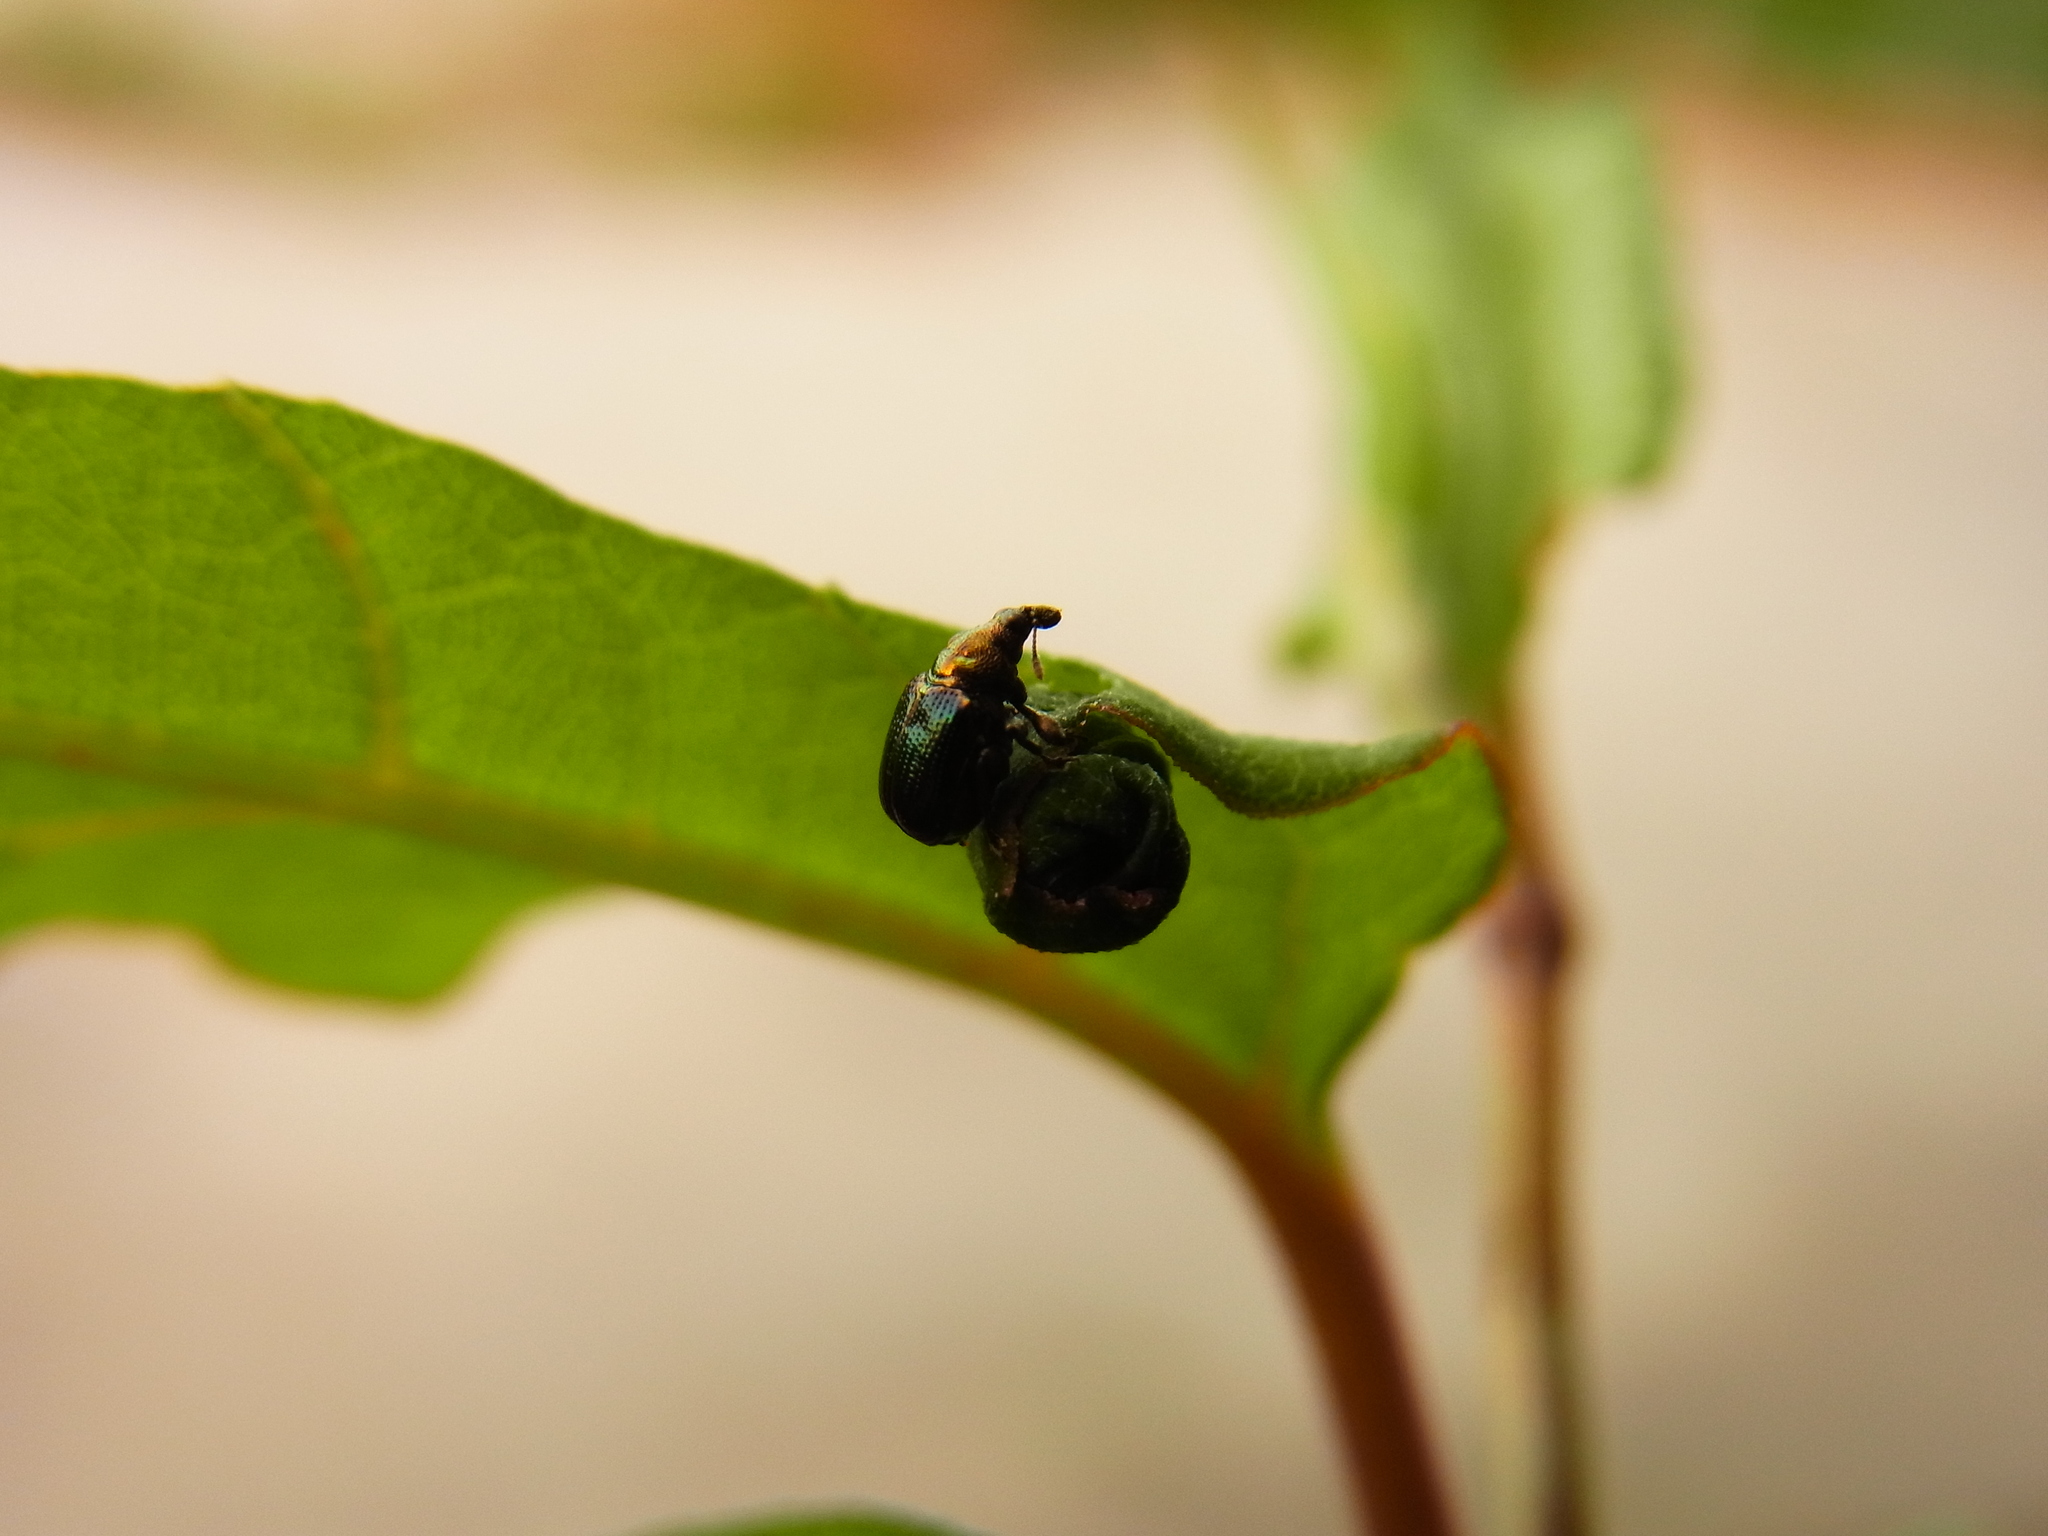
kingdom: Animalia
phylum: Arthropoda
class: Insecta
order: Coleoptera
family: Attelabidae
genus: Euops
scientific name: Euops splendida
